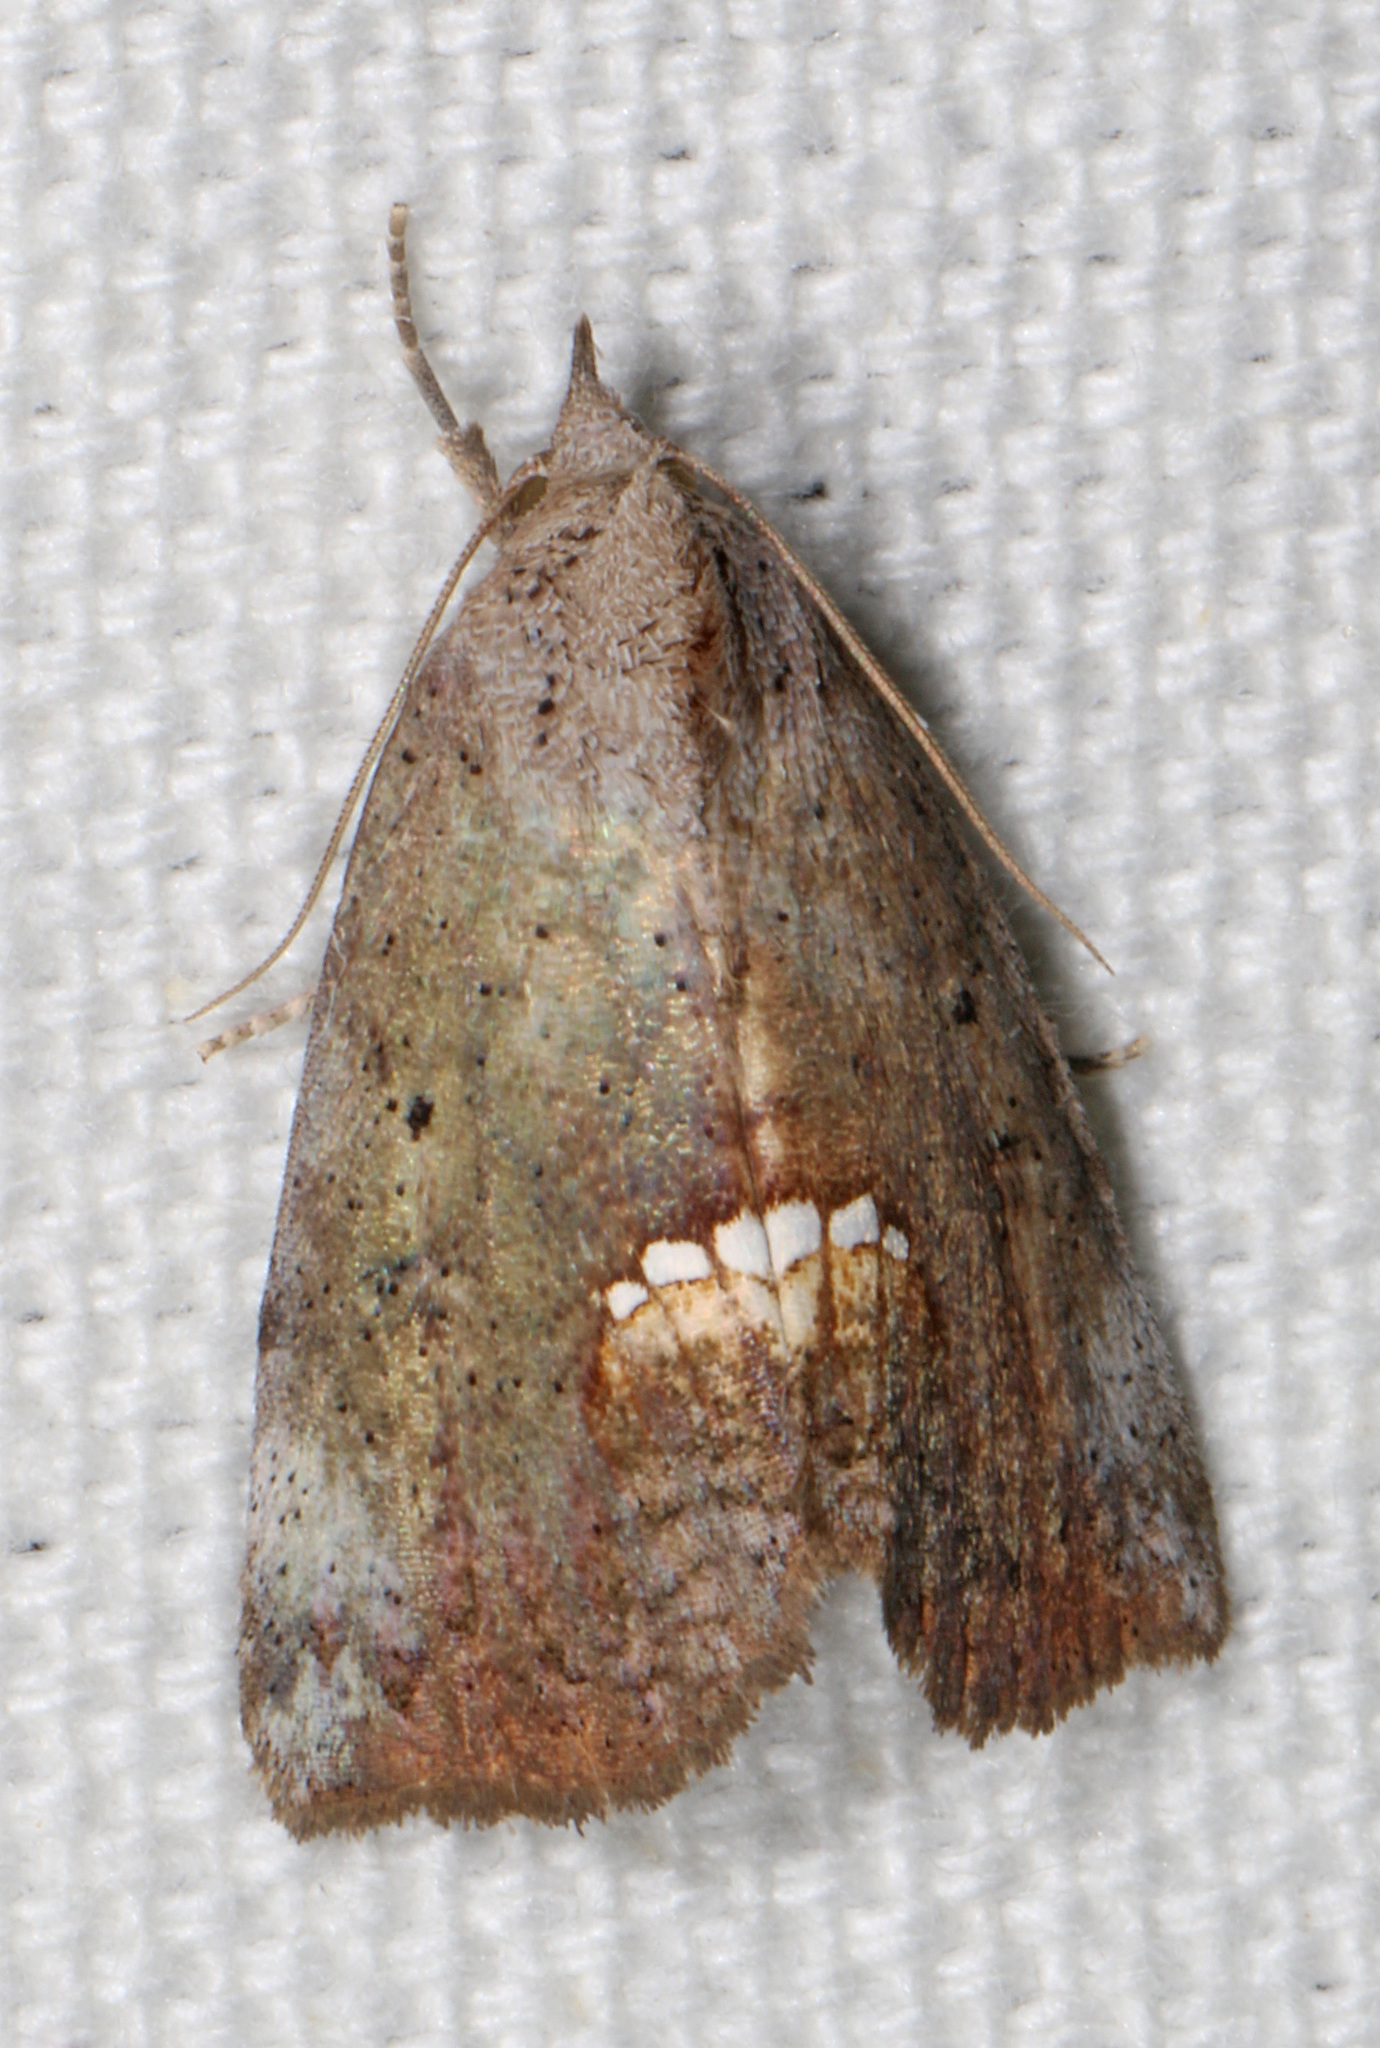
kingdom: Animalia
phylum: Arthropoda
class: Insecta
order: Lepidoptera
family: Erebidae
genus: Hypsoropha
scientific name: Hypsoropha hormos
